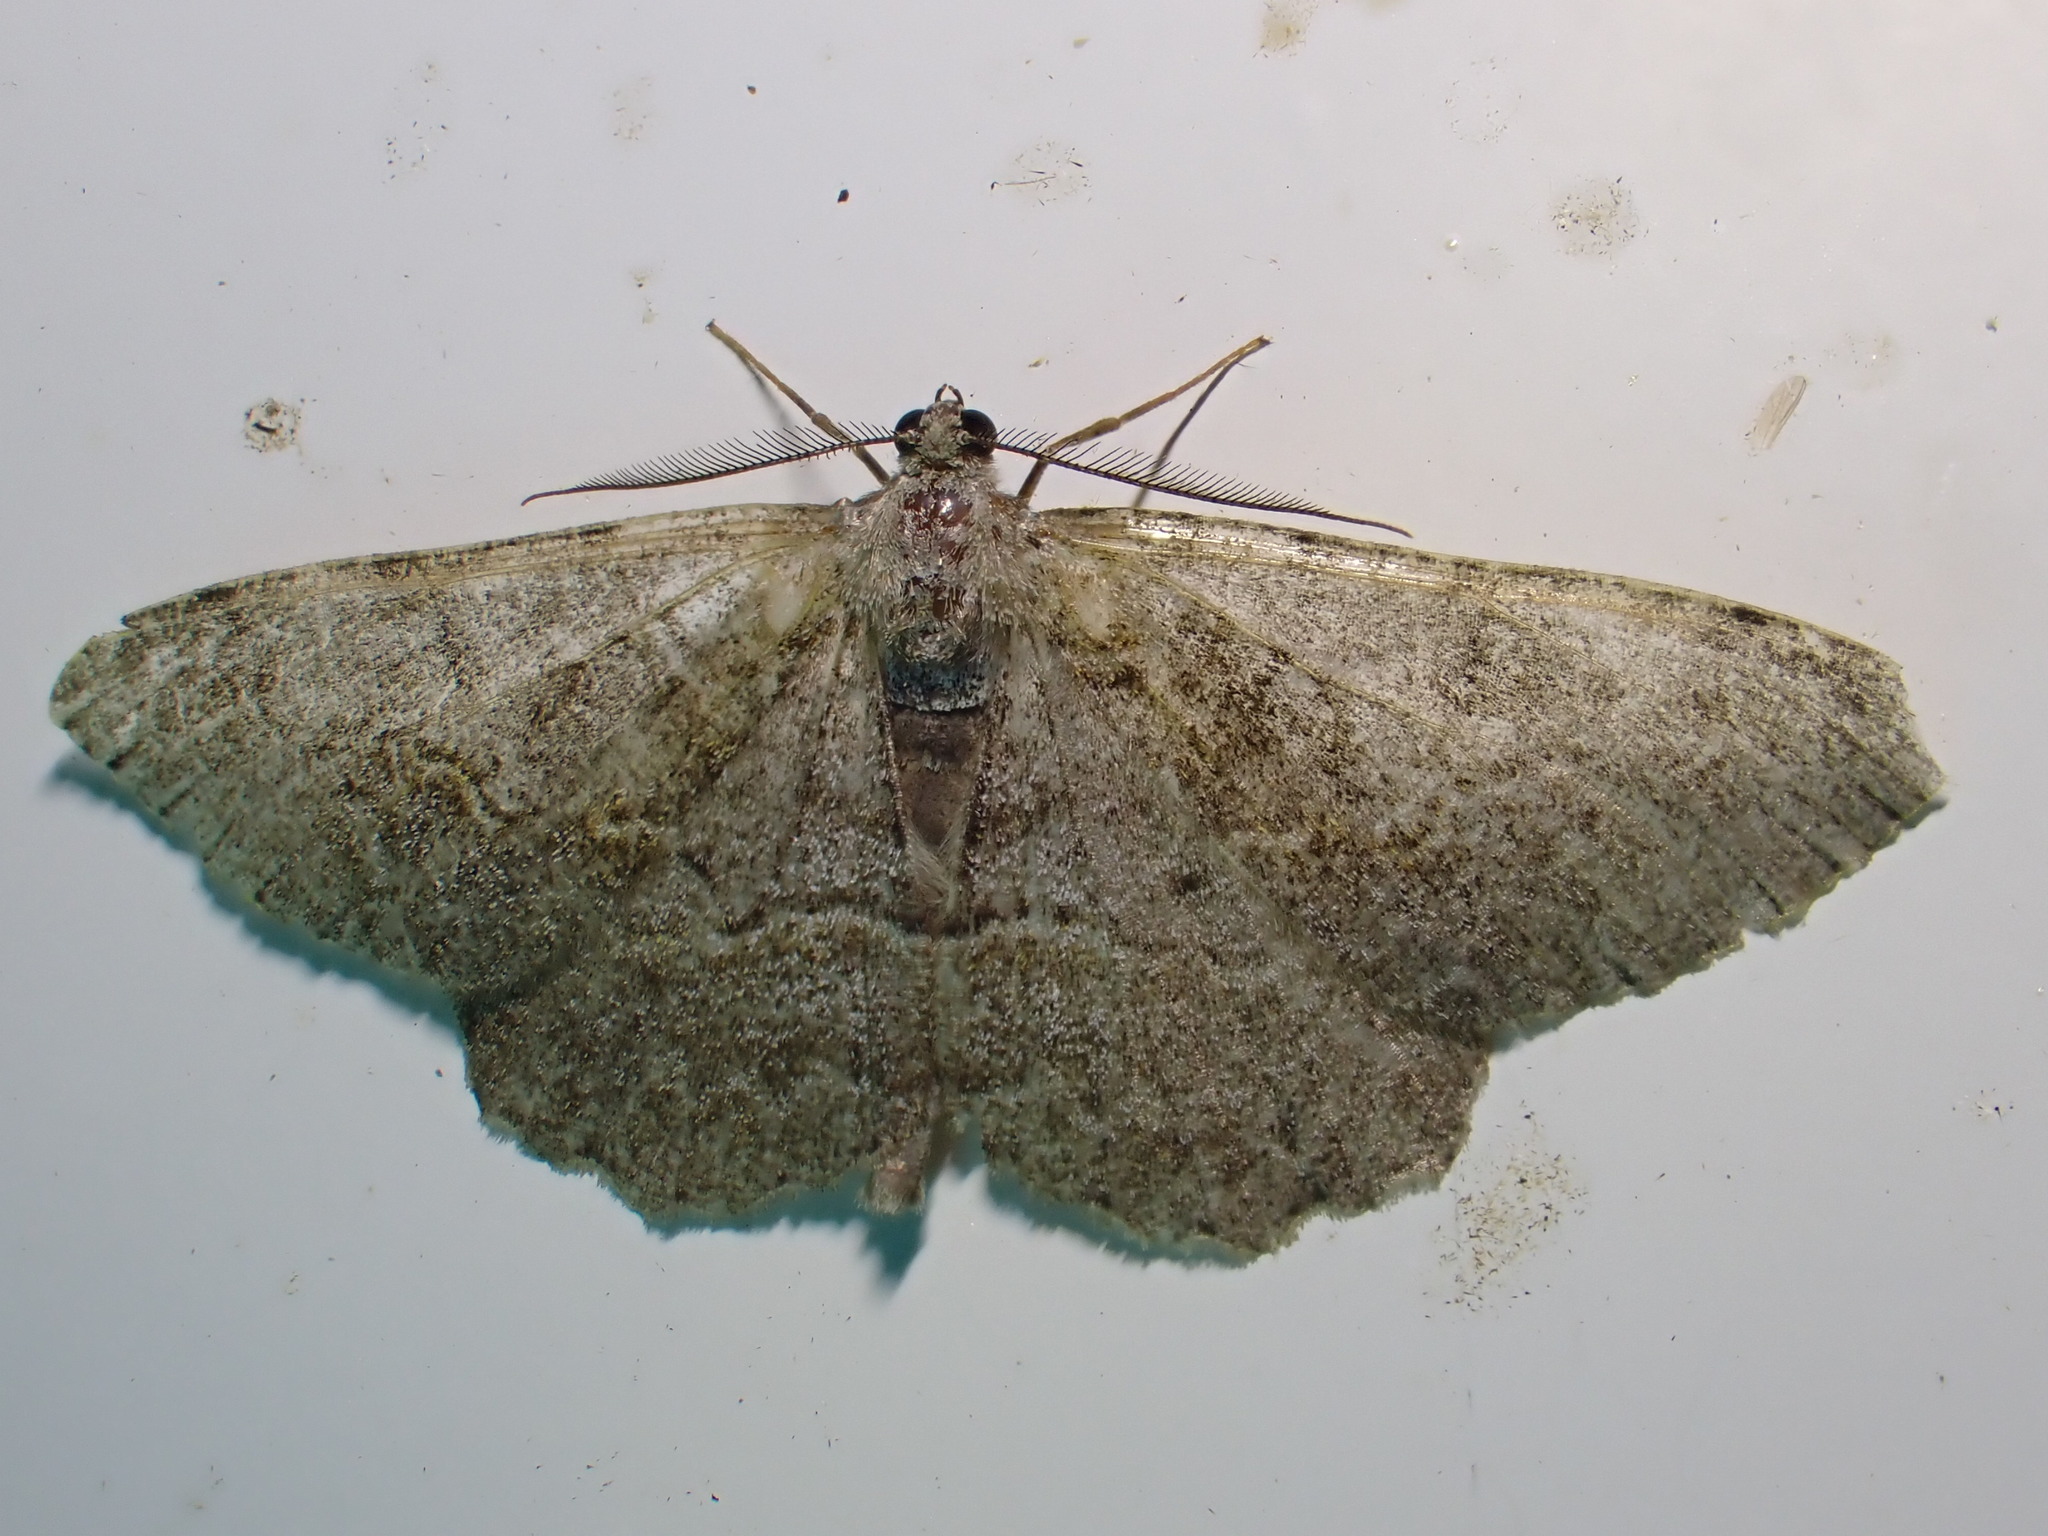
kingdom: Animalia
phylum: Arthropoda
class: Insecta
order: Lepidoptera
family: Geometridae
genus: Alcis
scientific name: Alcis repandata
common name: Mottled beauty
